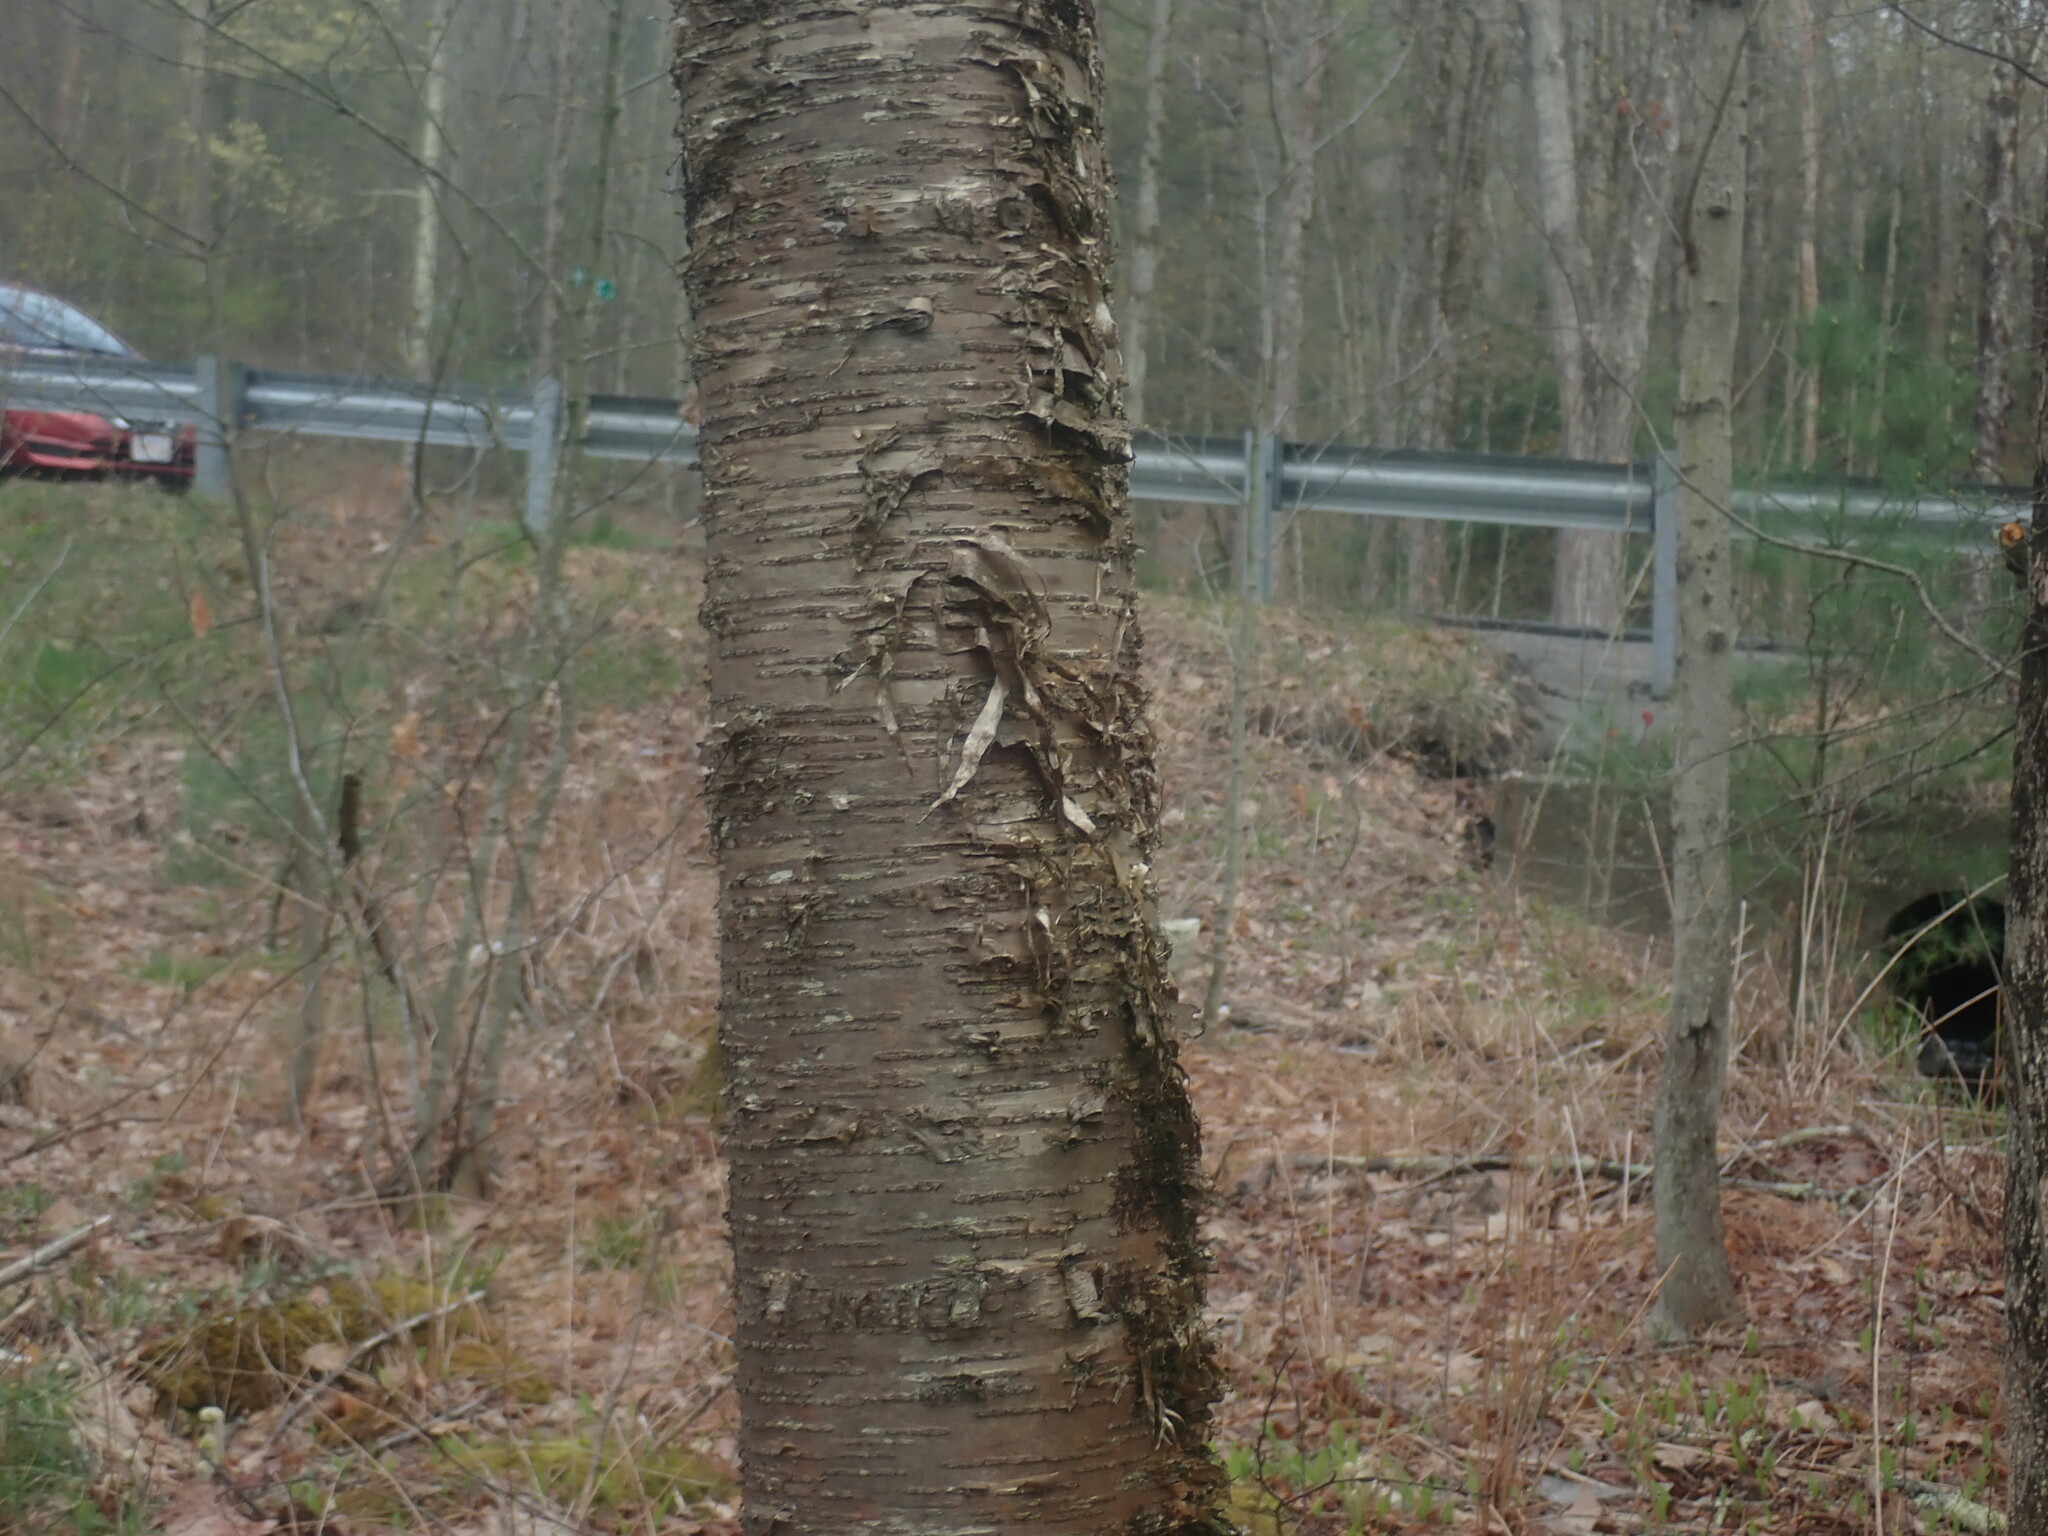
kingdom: Plantae
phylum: Tracheophyta
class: Magnoliopsida
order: Fagales
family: Betulaceae
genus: Betula
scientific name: Betula alleghaniensis
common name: Yellow birch
